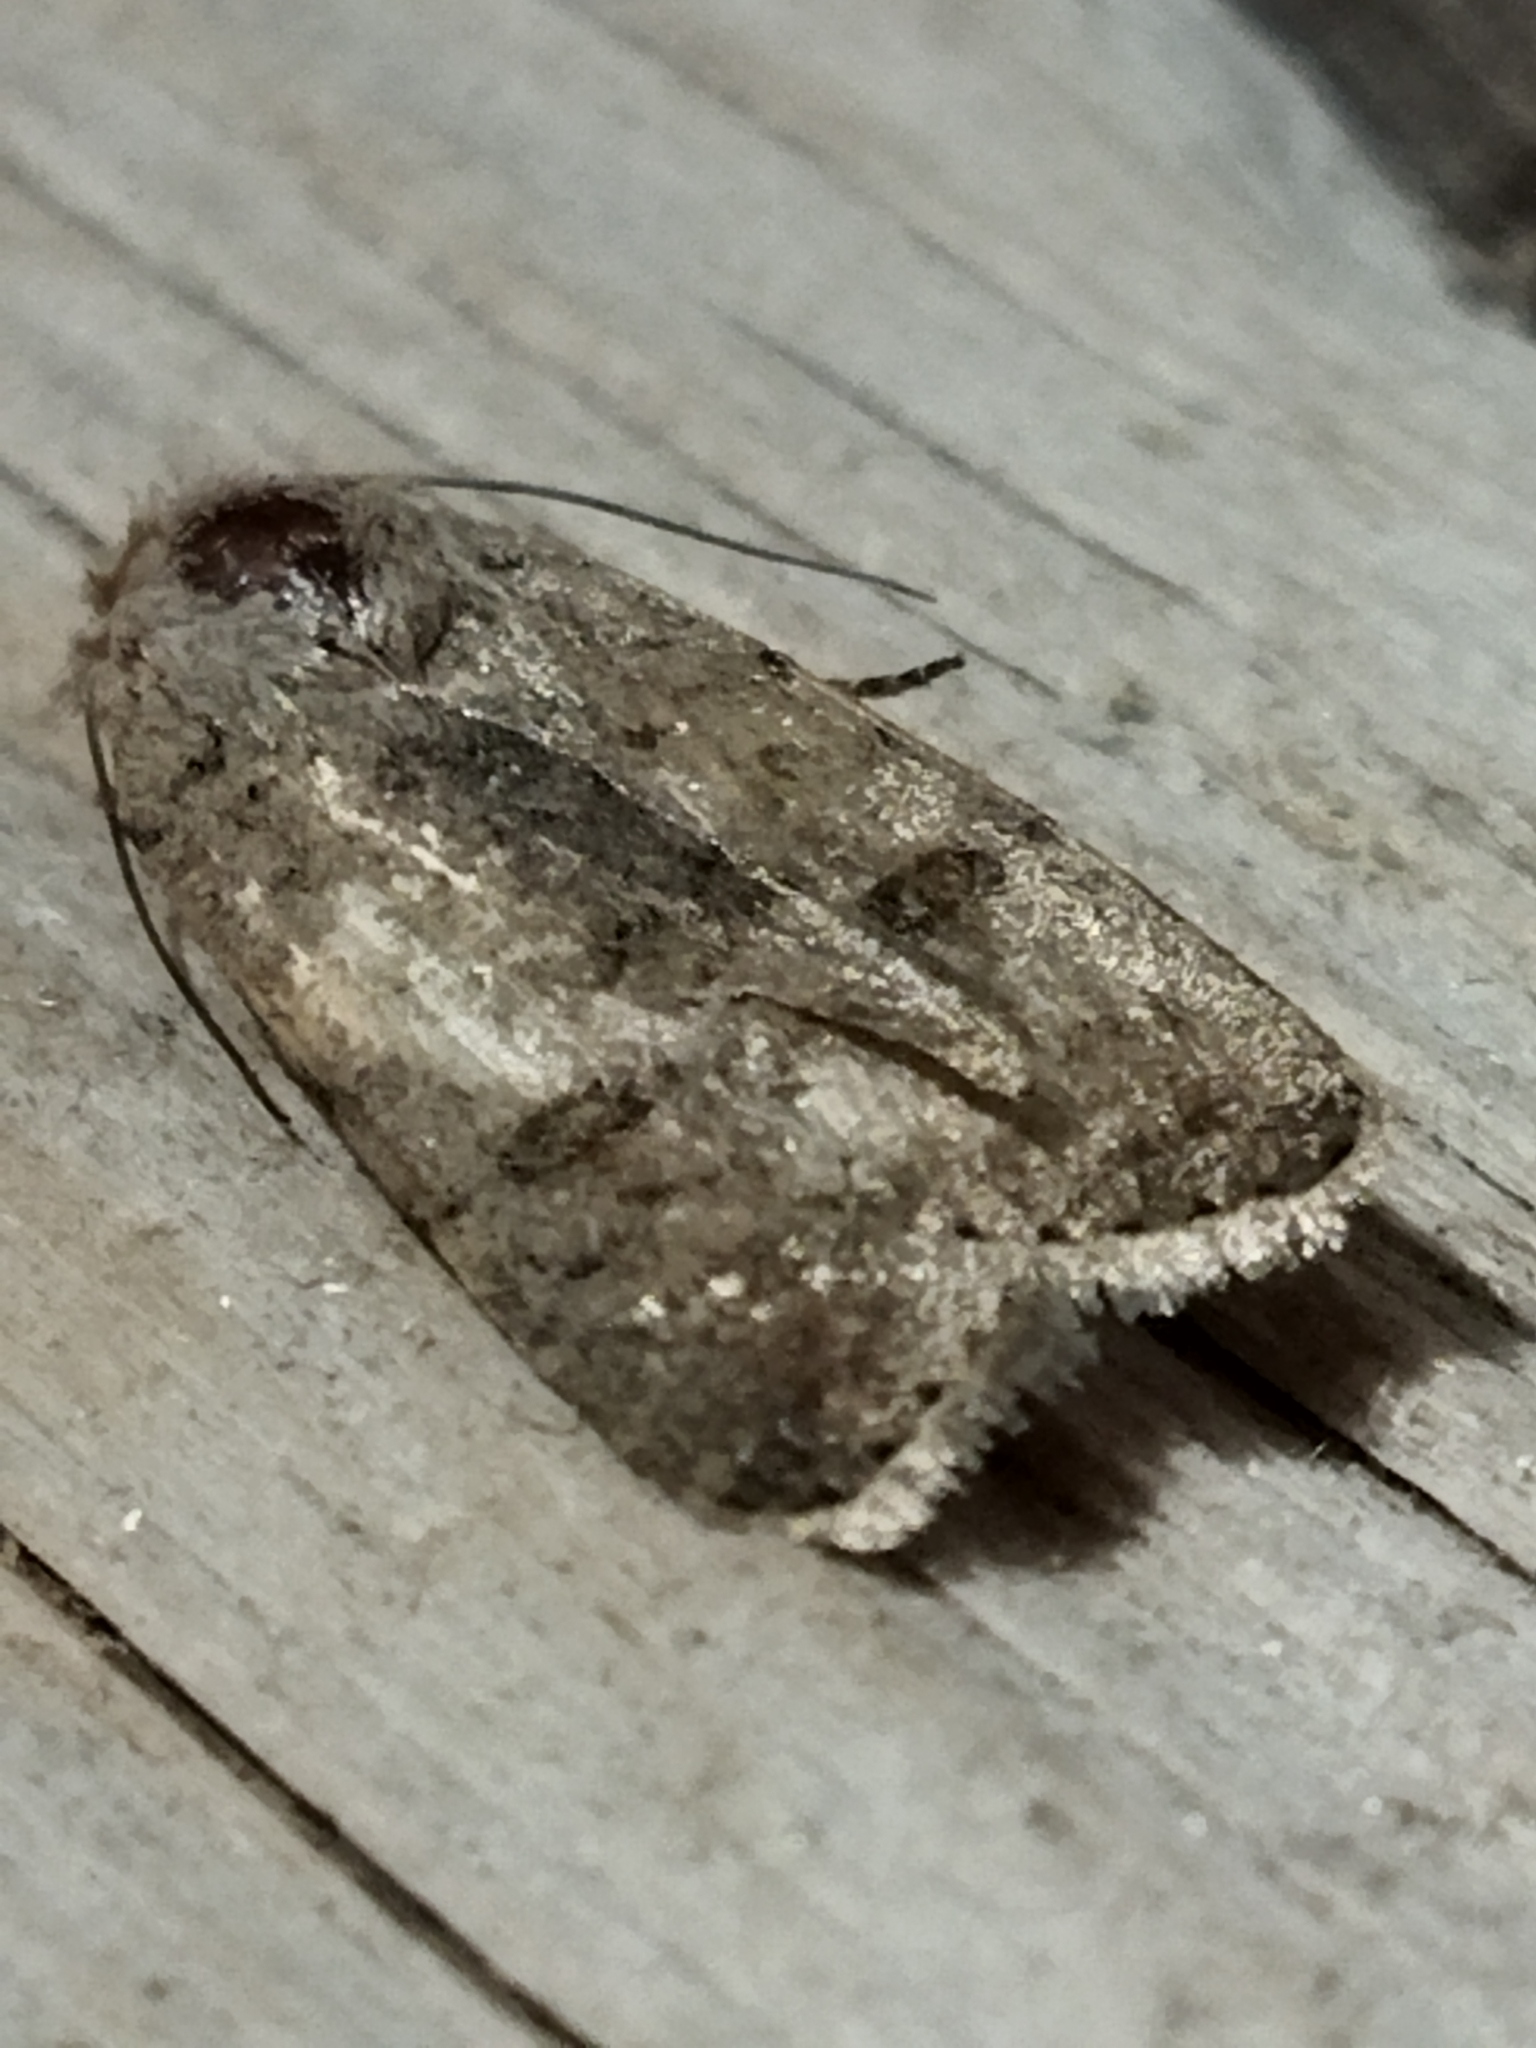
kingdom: Animalia
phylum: Arthropoda
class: Insecta
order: Lepidoptera
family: Noctuidae
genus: Caradrina
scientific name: Caradrina
